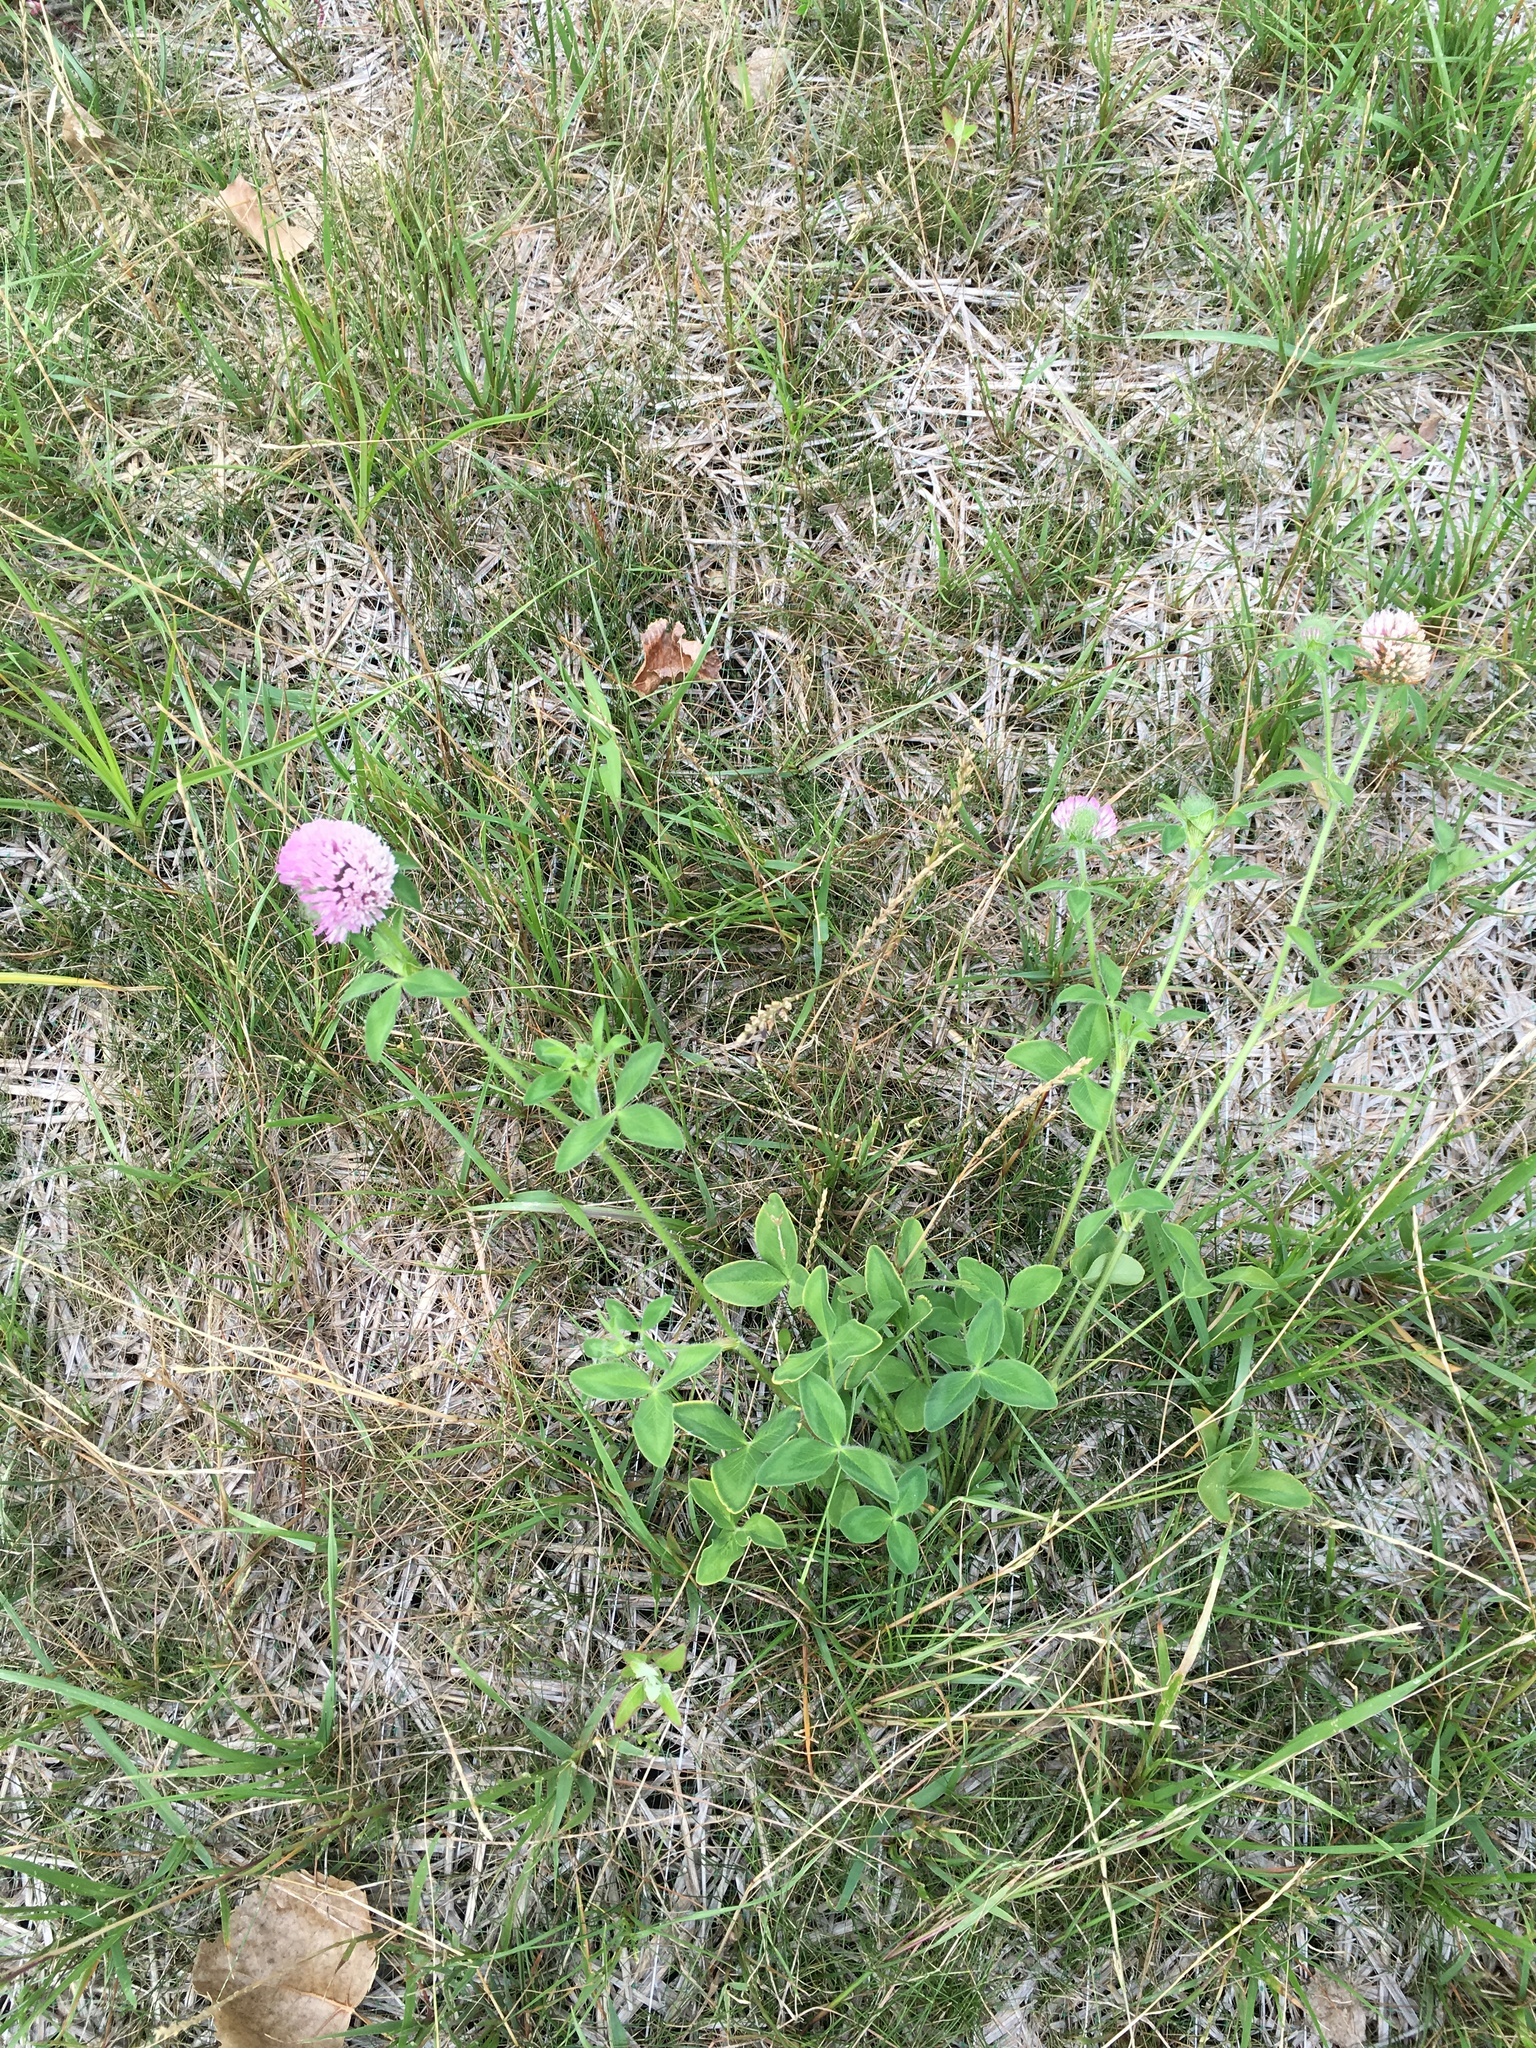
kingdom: Plantae
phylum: Tracheophyta
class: Magnoliopsida
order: Fabales
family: Fabaceae
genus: Trifolium
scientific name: Trifolium pratense
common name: Red clover
